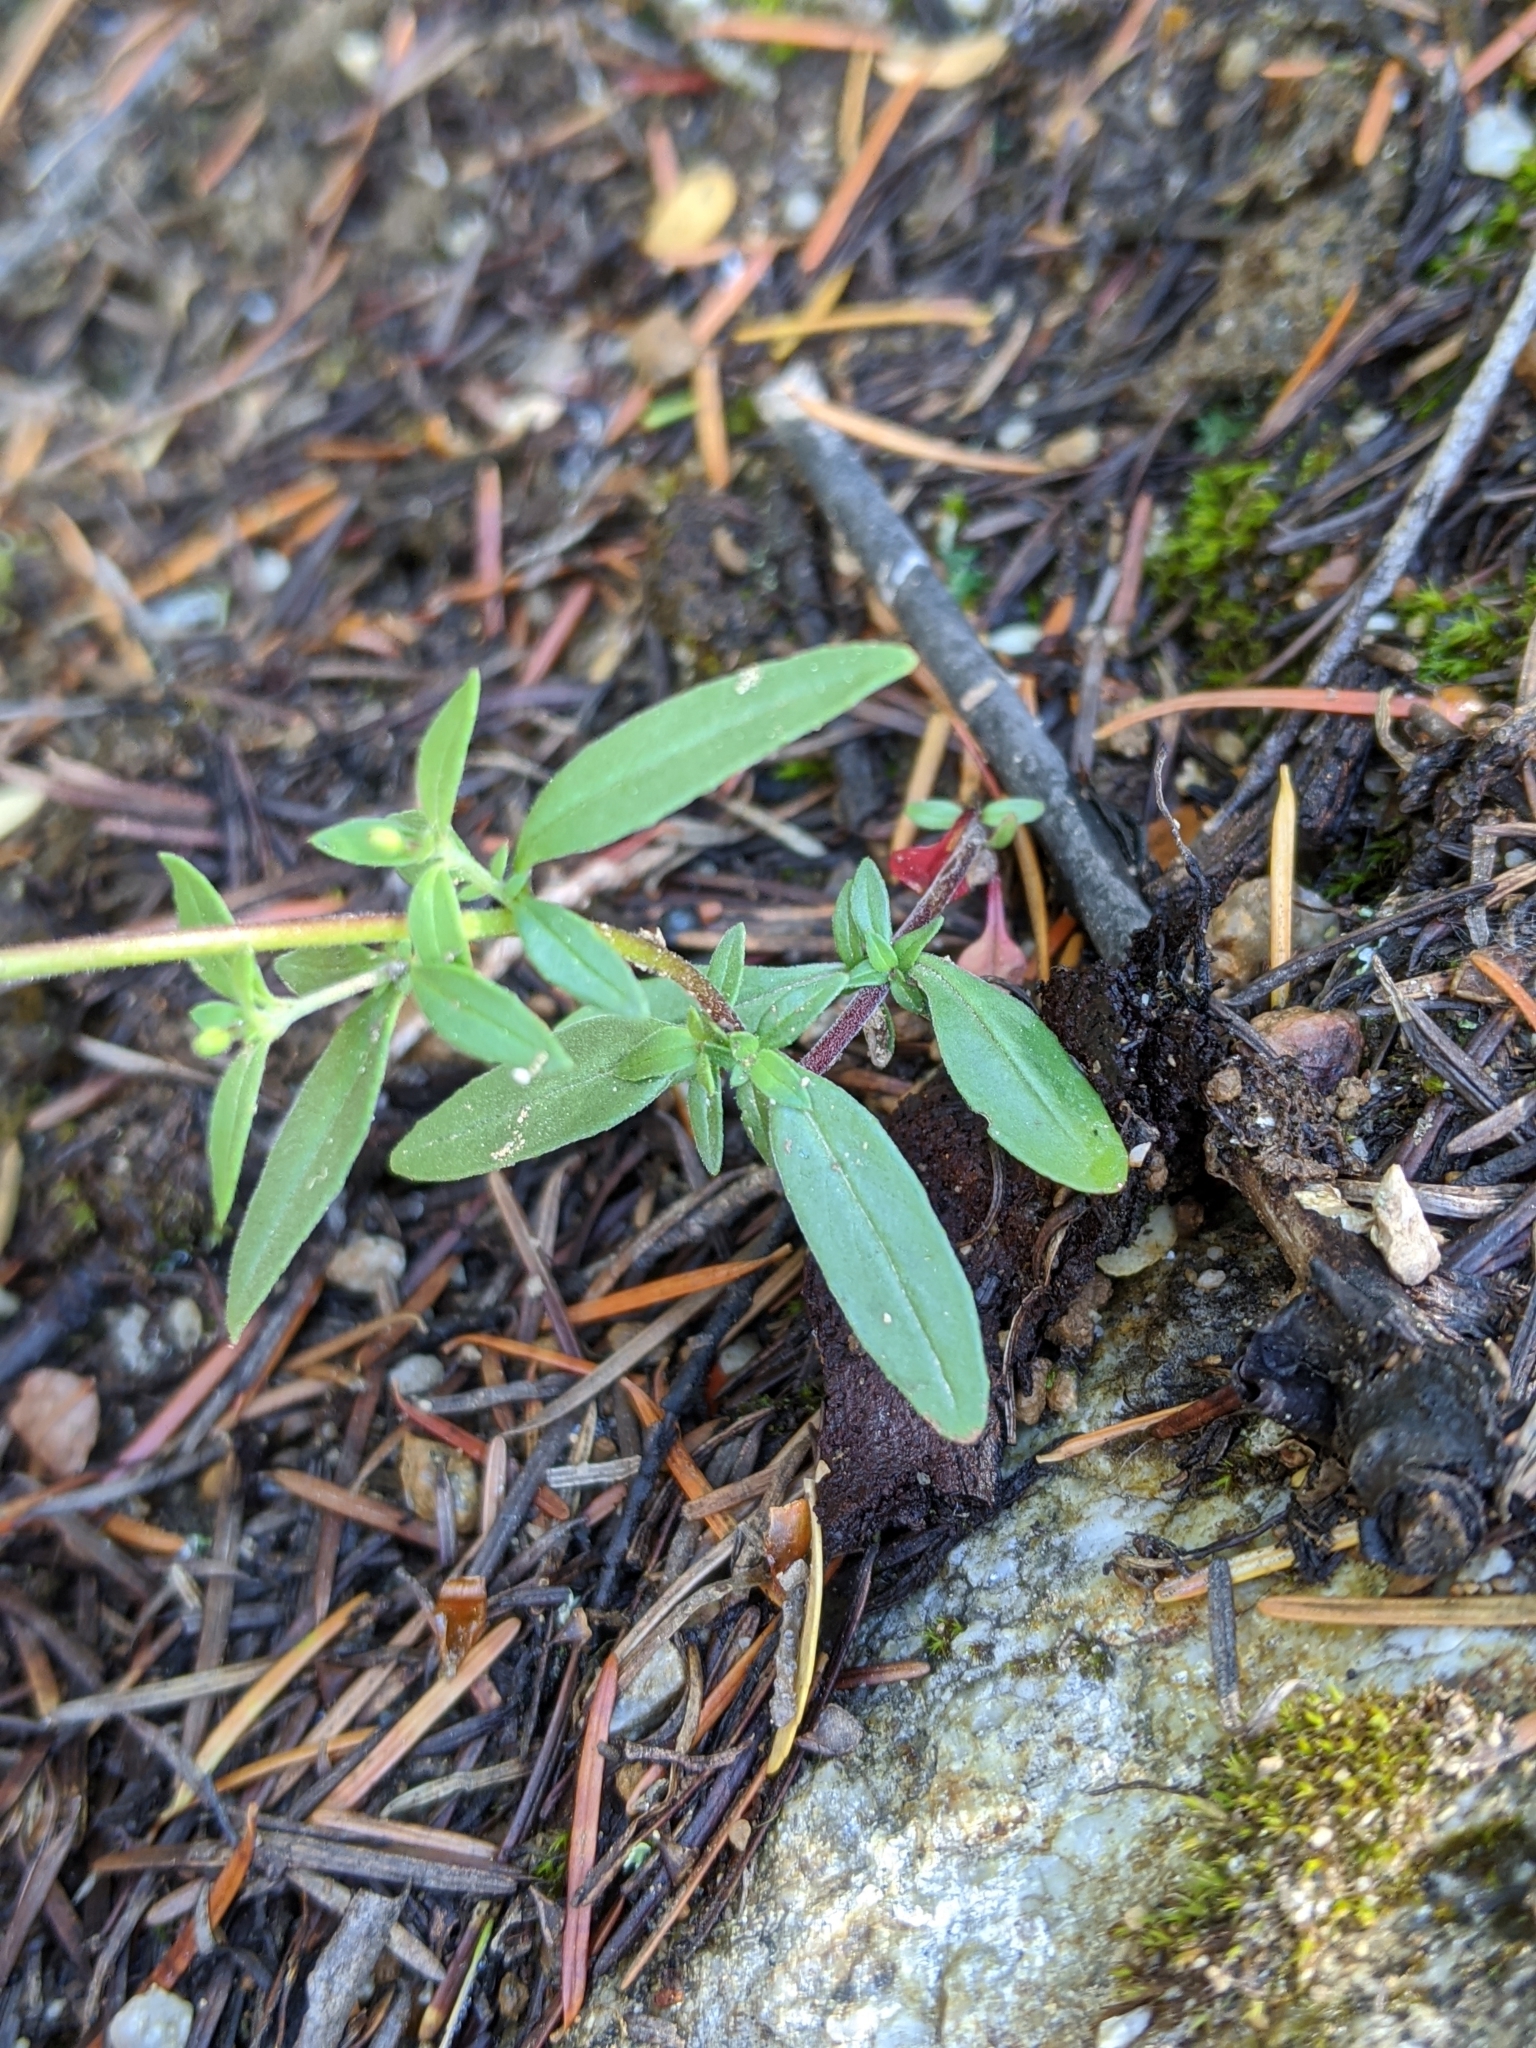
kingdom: Plantae
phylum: Tracheophyta
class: Magnoliopsida
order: Lamiales
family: Plantaginaceae
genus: Collinsia
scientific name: Collinsia parviflora
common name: Blue-lips
